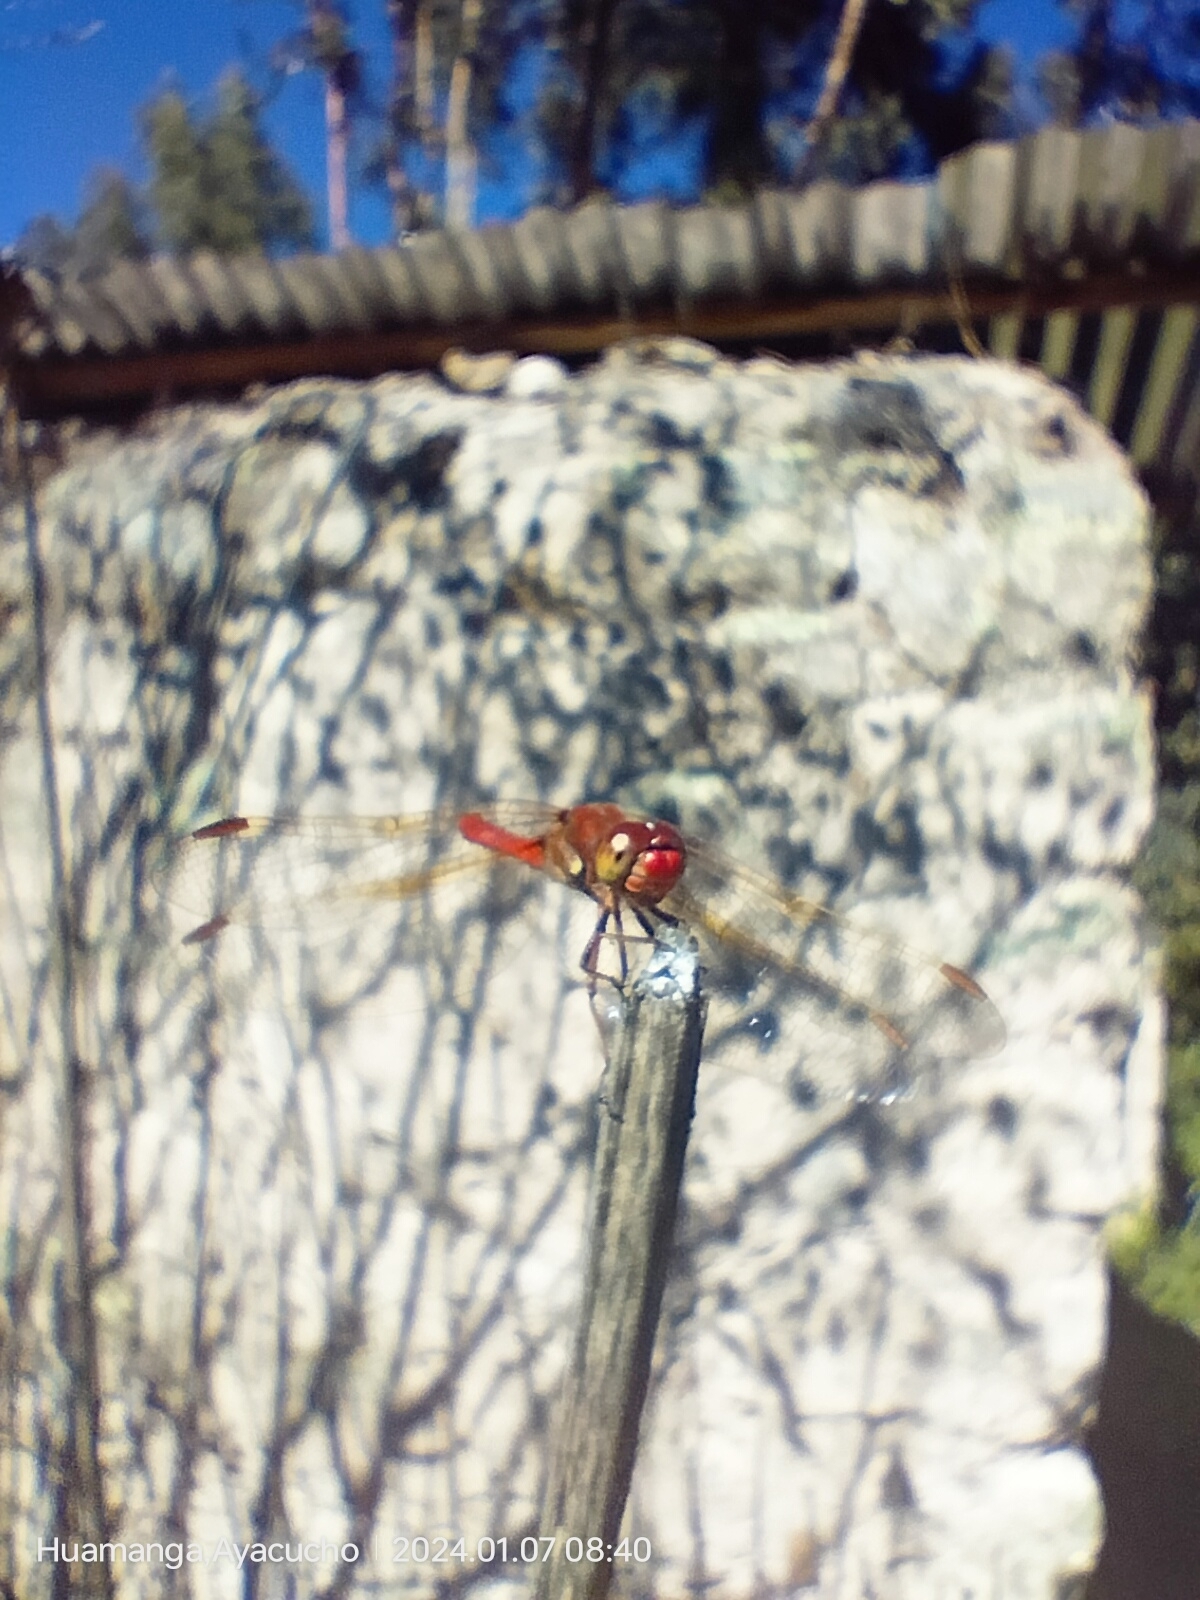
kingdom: Animalia
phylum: Arthropoda
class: Insecta
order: Odonata
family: Libellulidae
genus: Sympetrum
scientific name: Sympetrum gilvum
